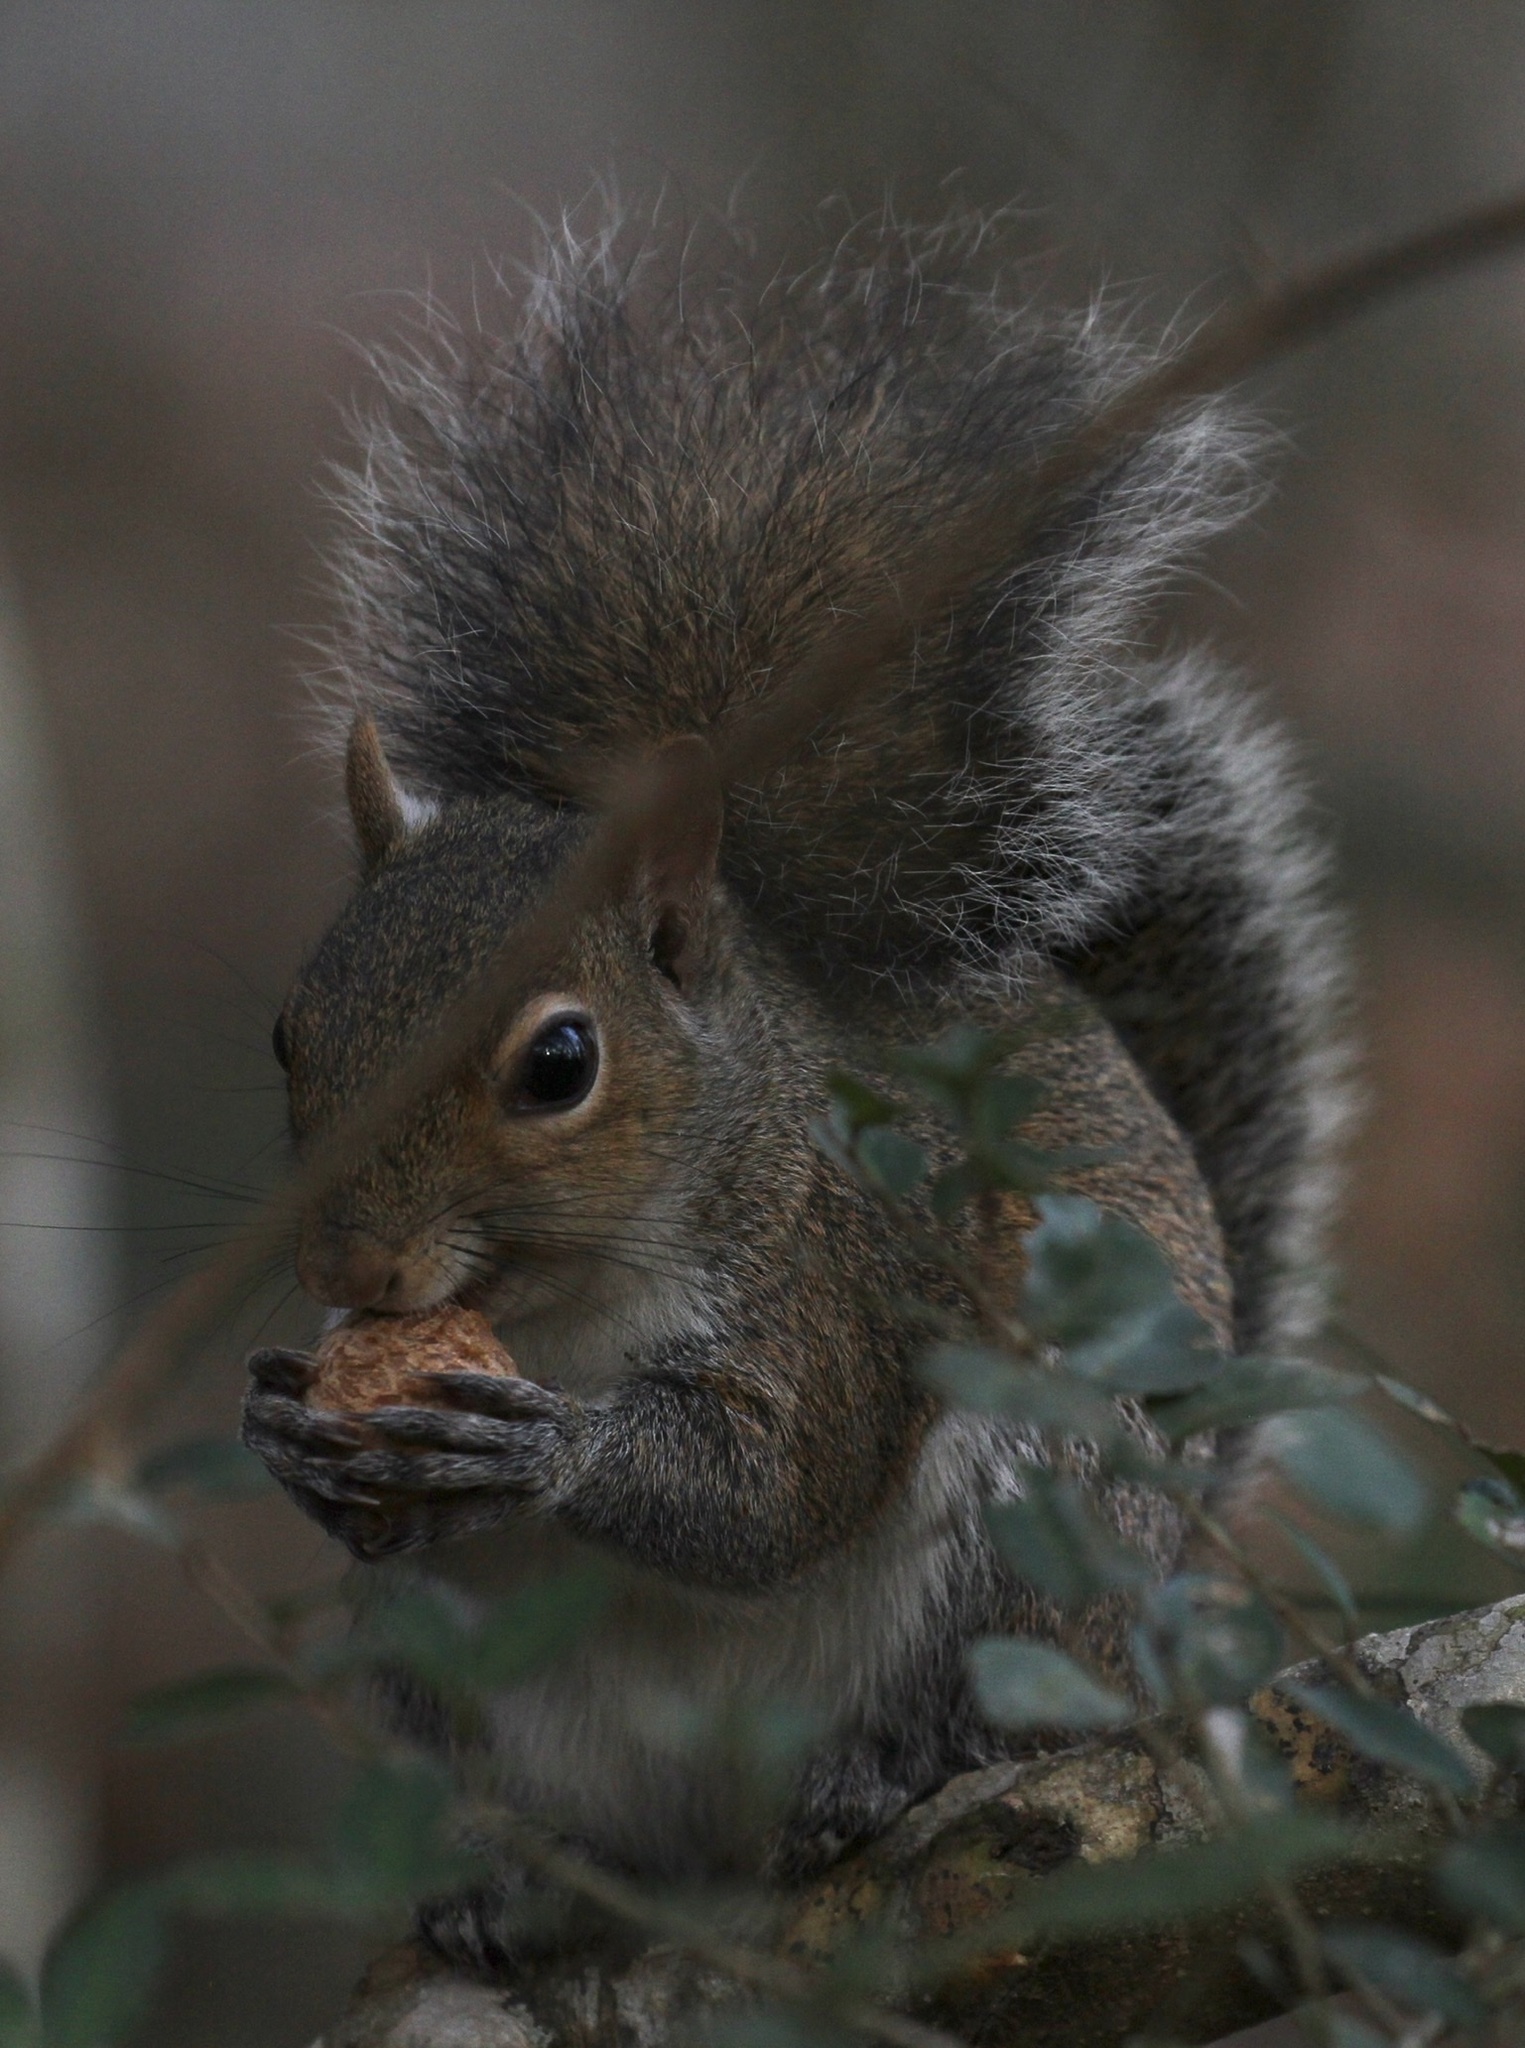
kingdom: Animalia
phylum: Chordata
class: Mammalia
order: Rodentia
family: Sciuridae
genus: Sciurus
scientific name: Sciurus carolinensis
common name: Eastern gray squirrel
